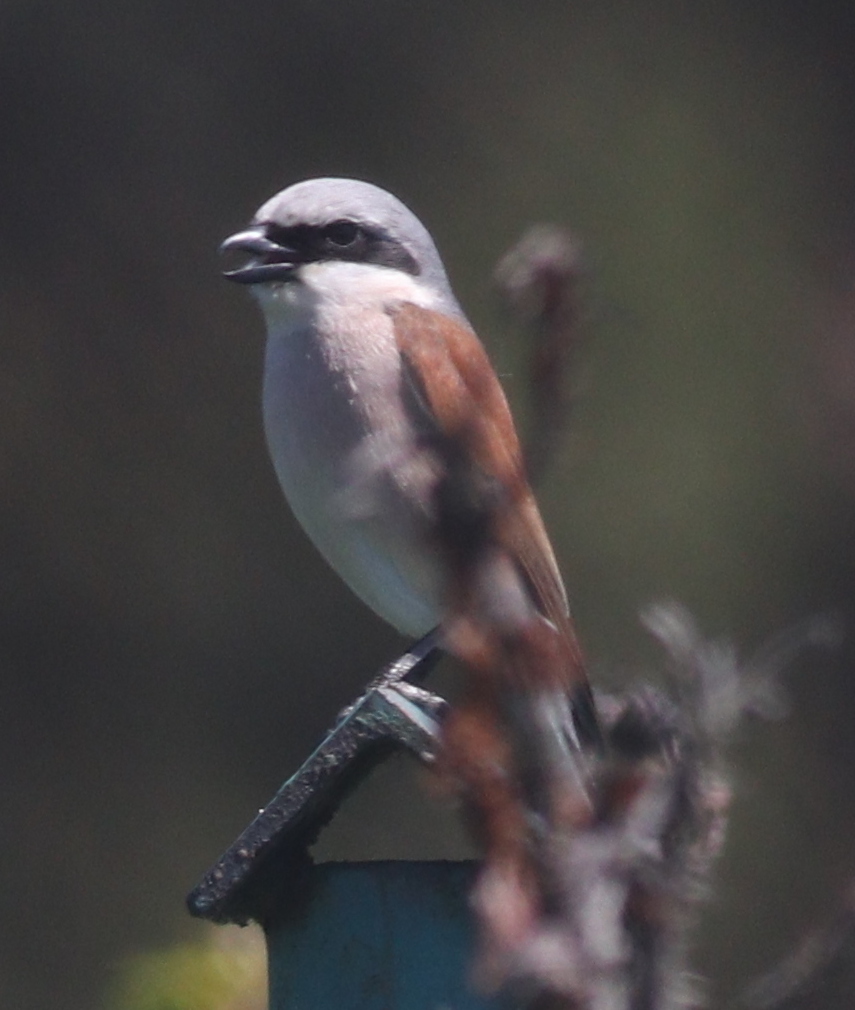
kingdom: Animalia
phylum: Chordata
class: Aves
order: Passeriformes
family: Laniidae
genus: Lanius
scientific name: Lanius collurio
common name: Red-backed shrike
